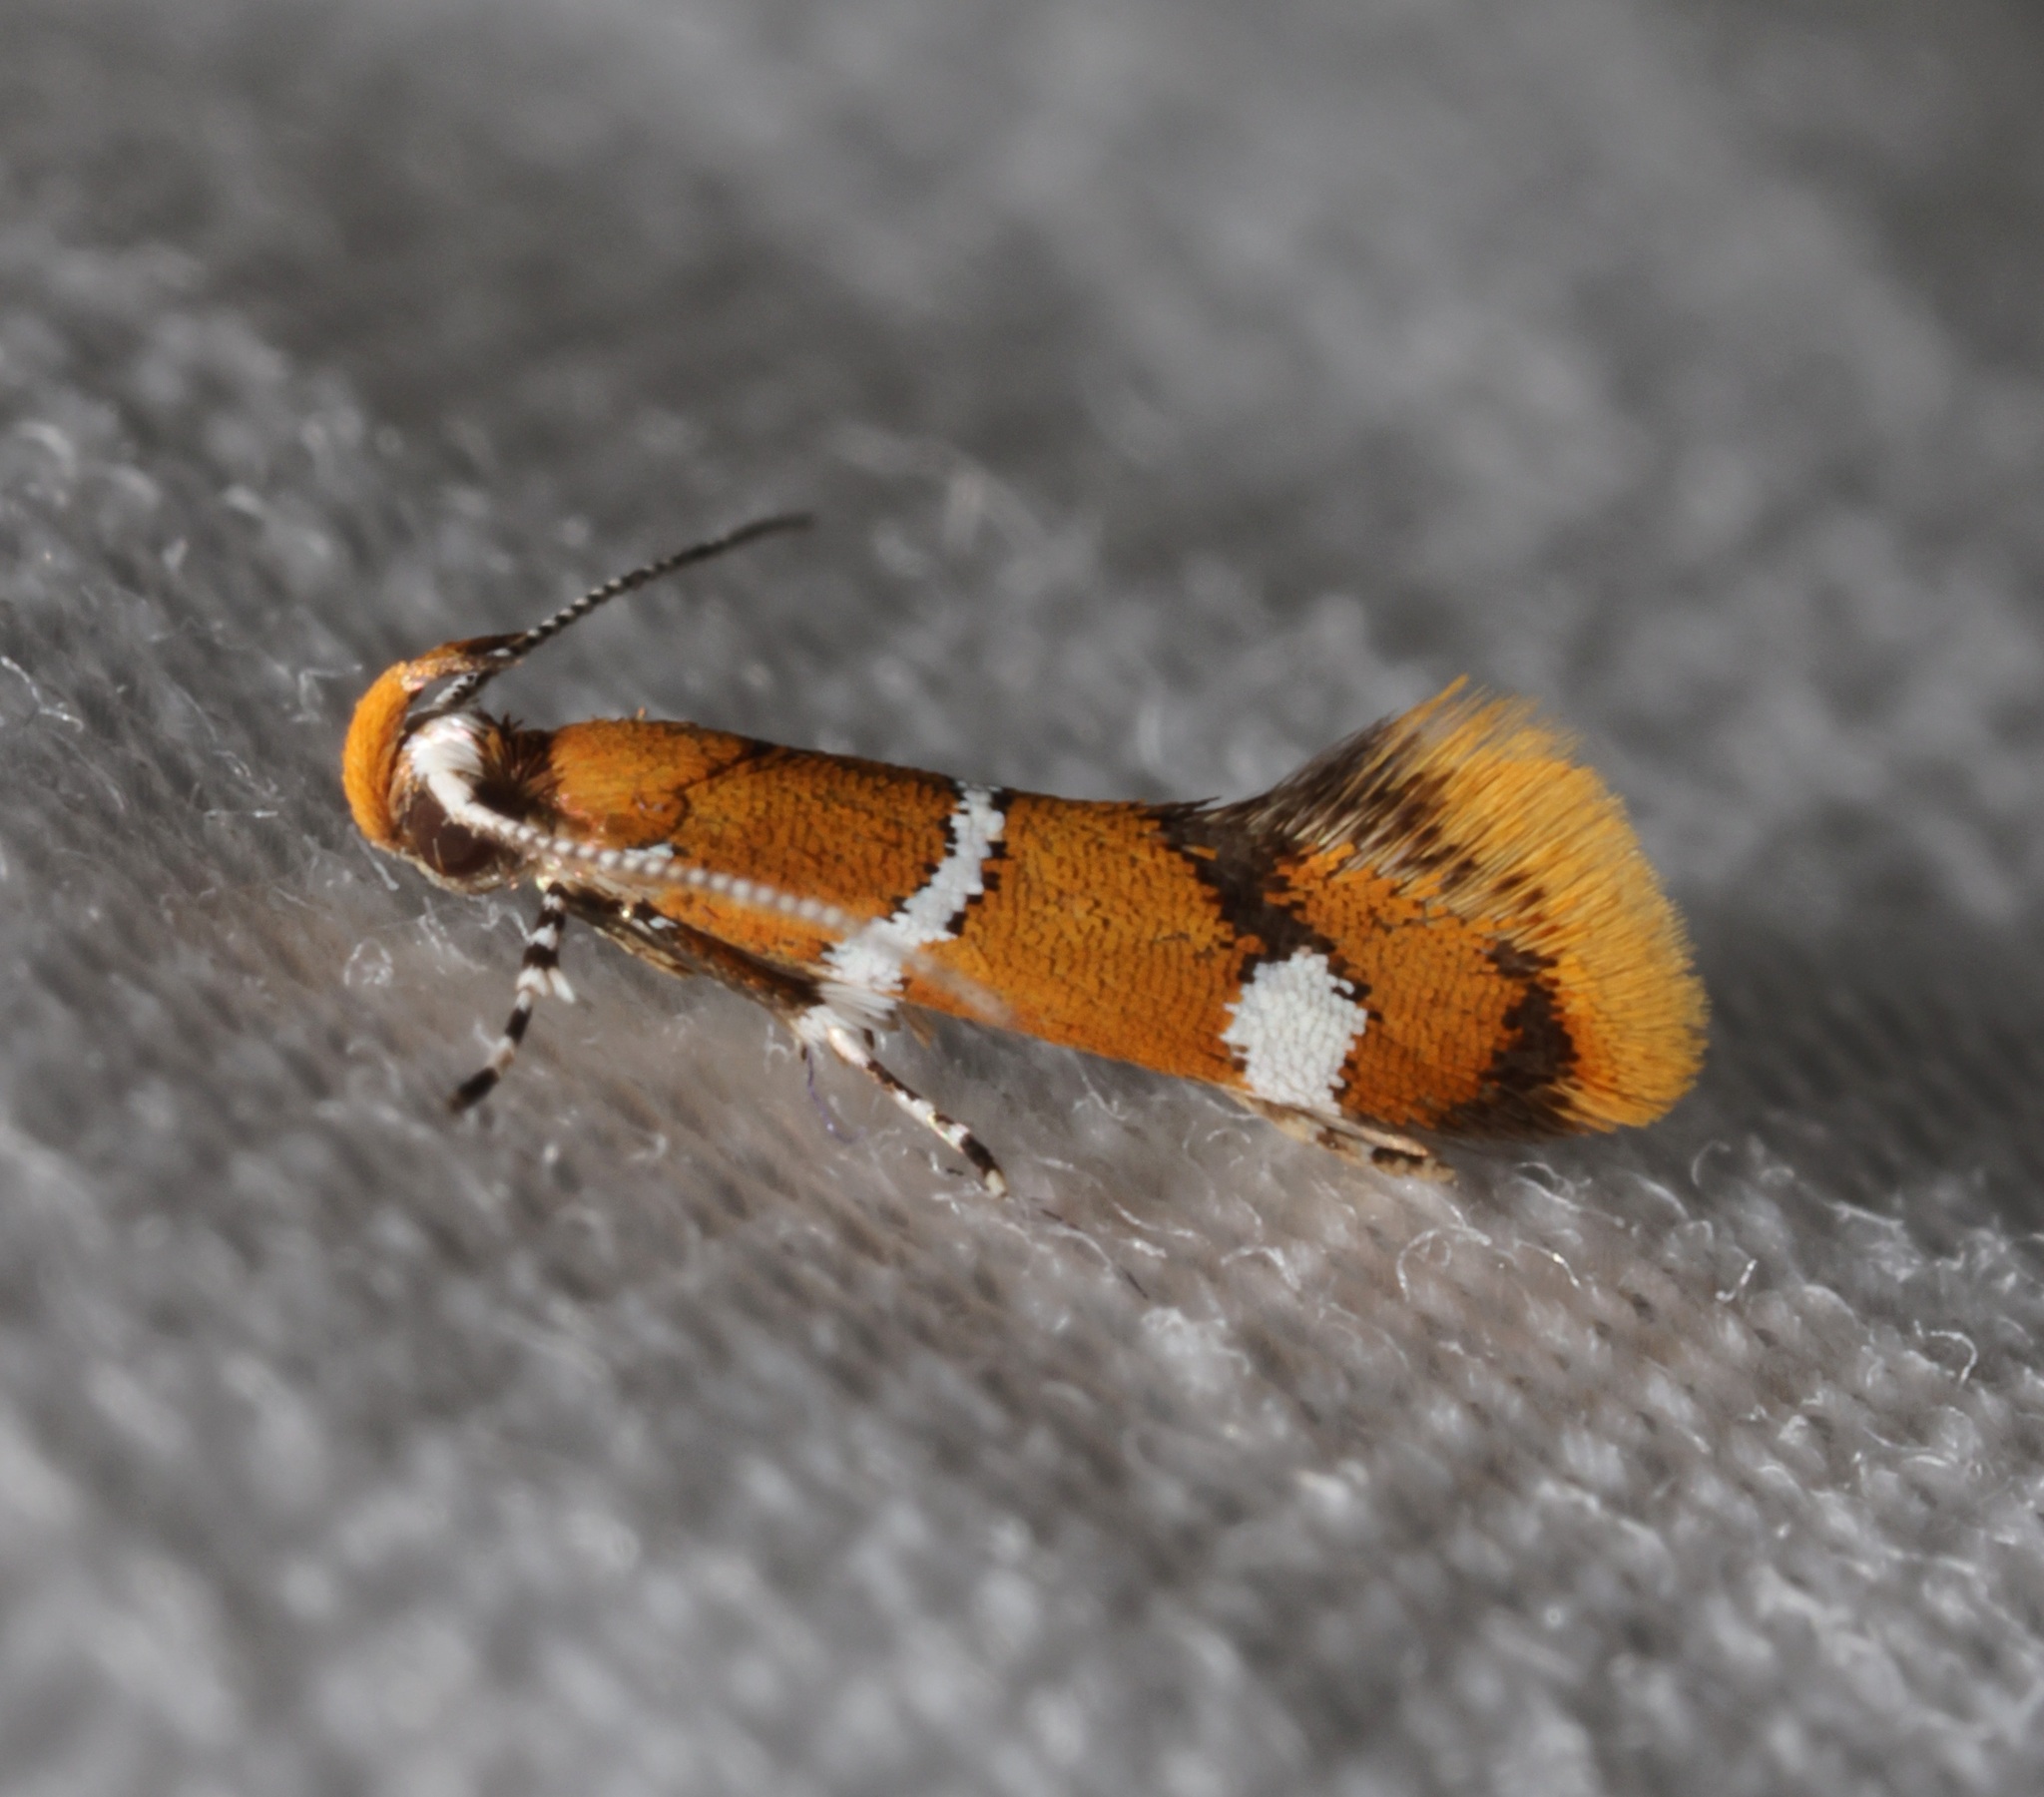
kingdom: Animalia
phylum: Arthropoda
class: Insecta
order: Lepidoptera
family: Oecophoridae
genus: Promalactis
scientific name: Promalactis albisquama
